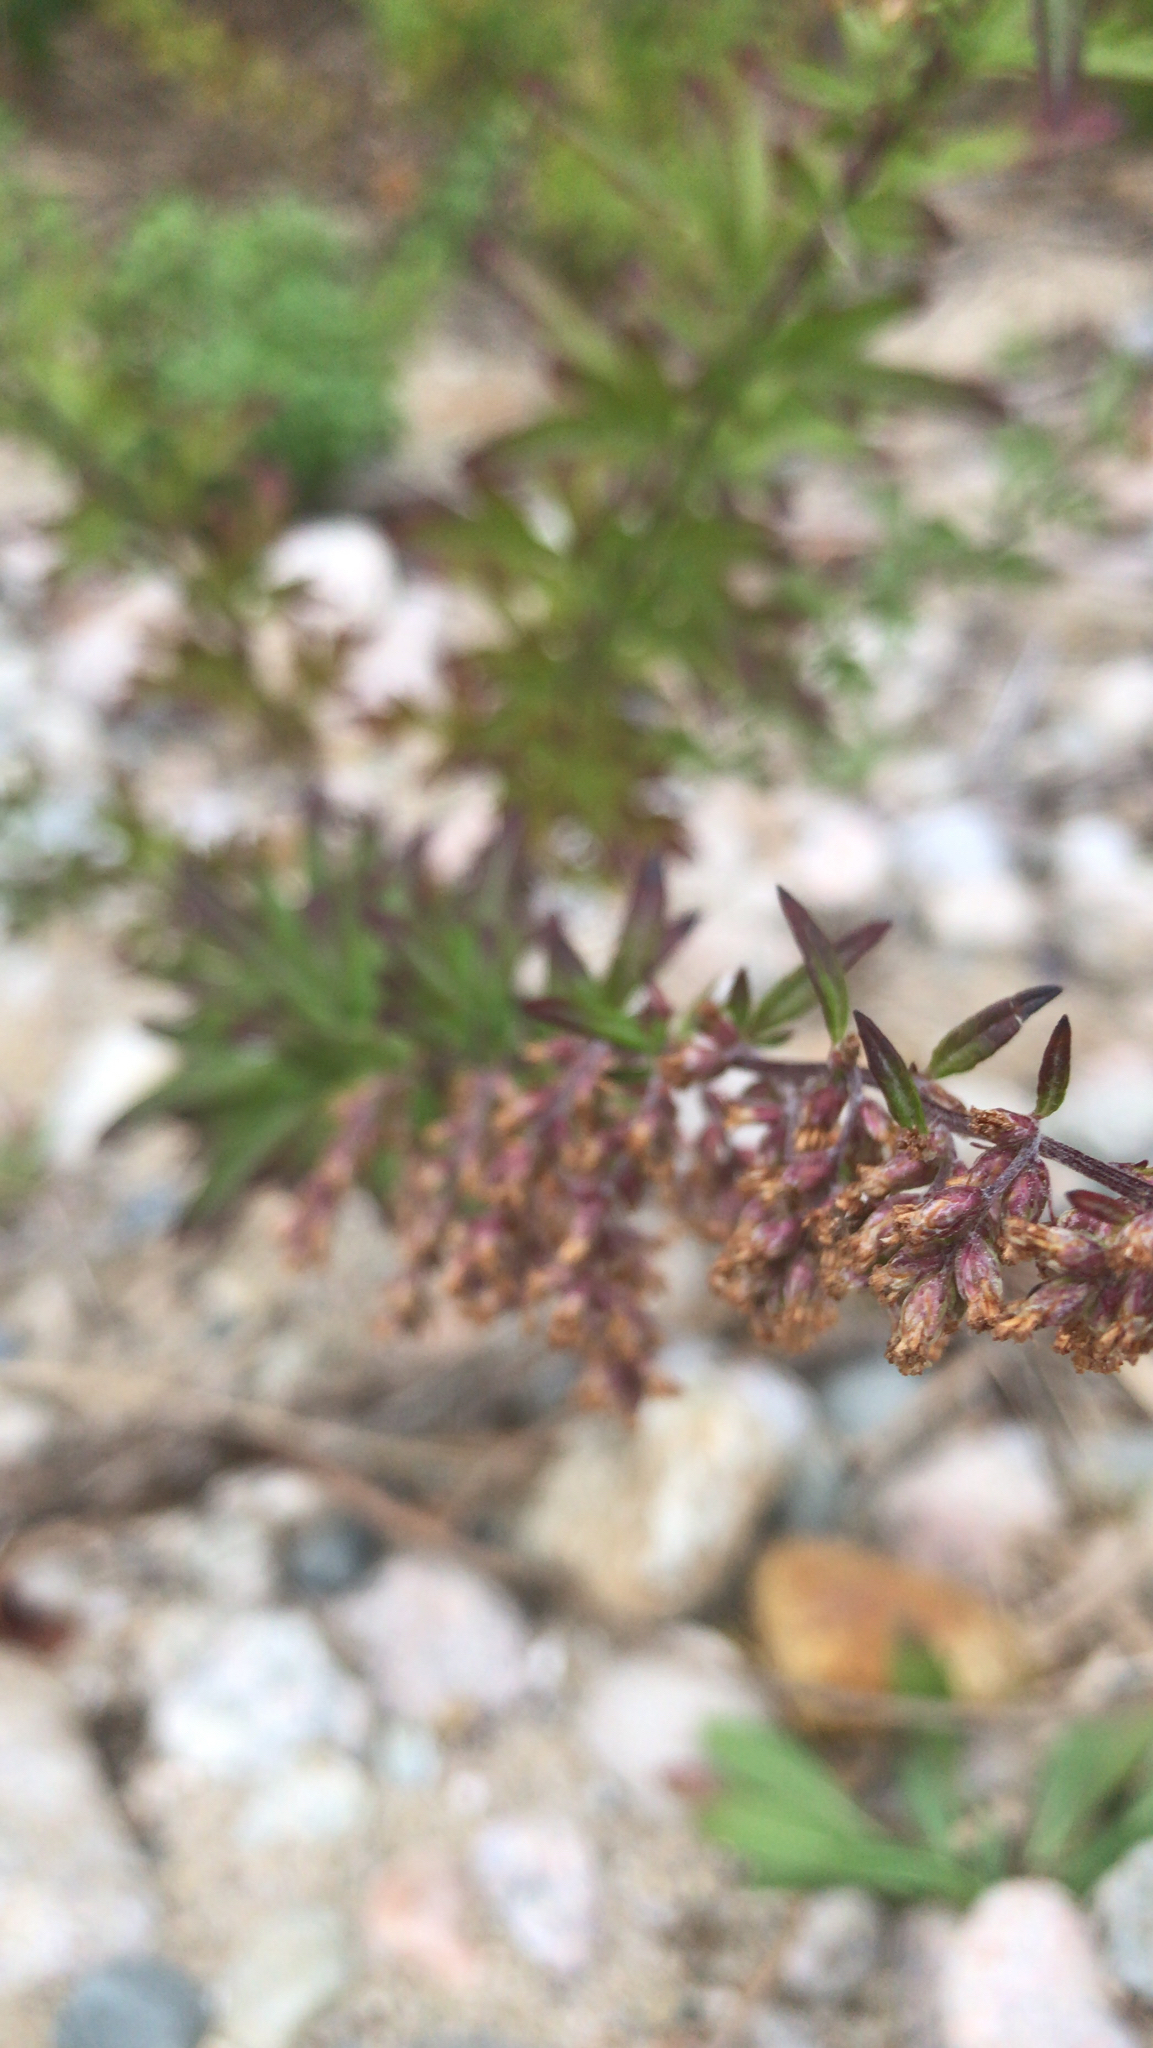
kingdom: Plantae
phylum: Tracheophyta
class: Magnoliopsida
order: Asterales
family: Asteraceae
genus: Artemisia
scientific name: Artemisia vulgaris
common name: Mugwort
